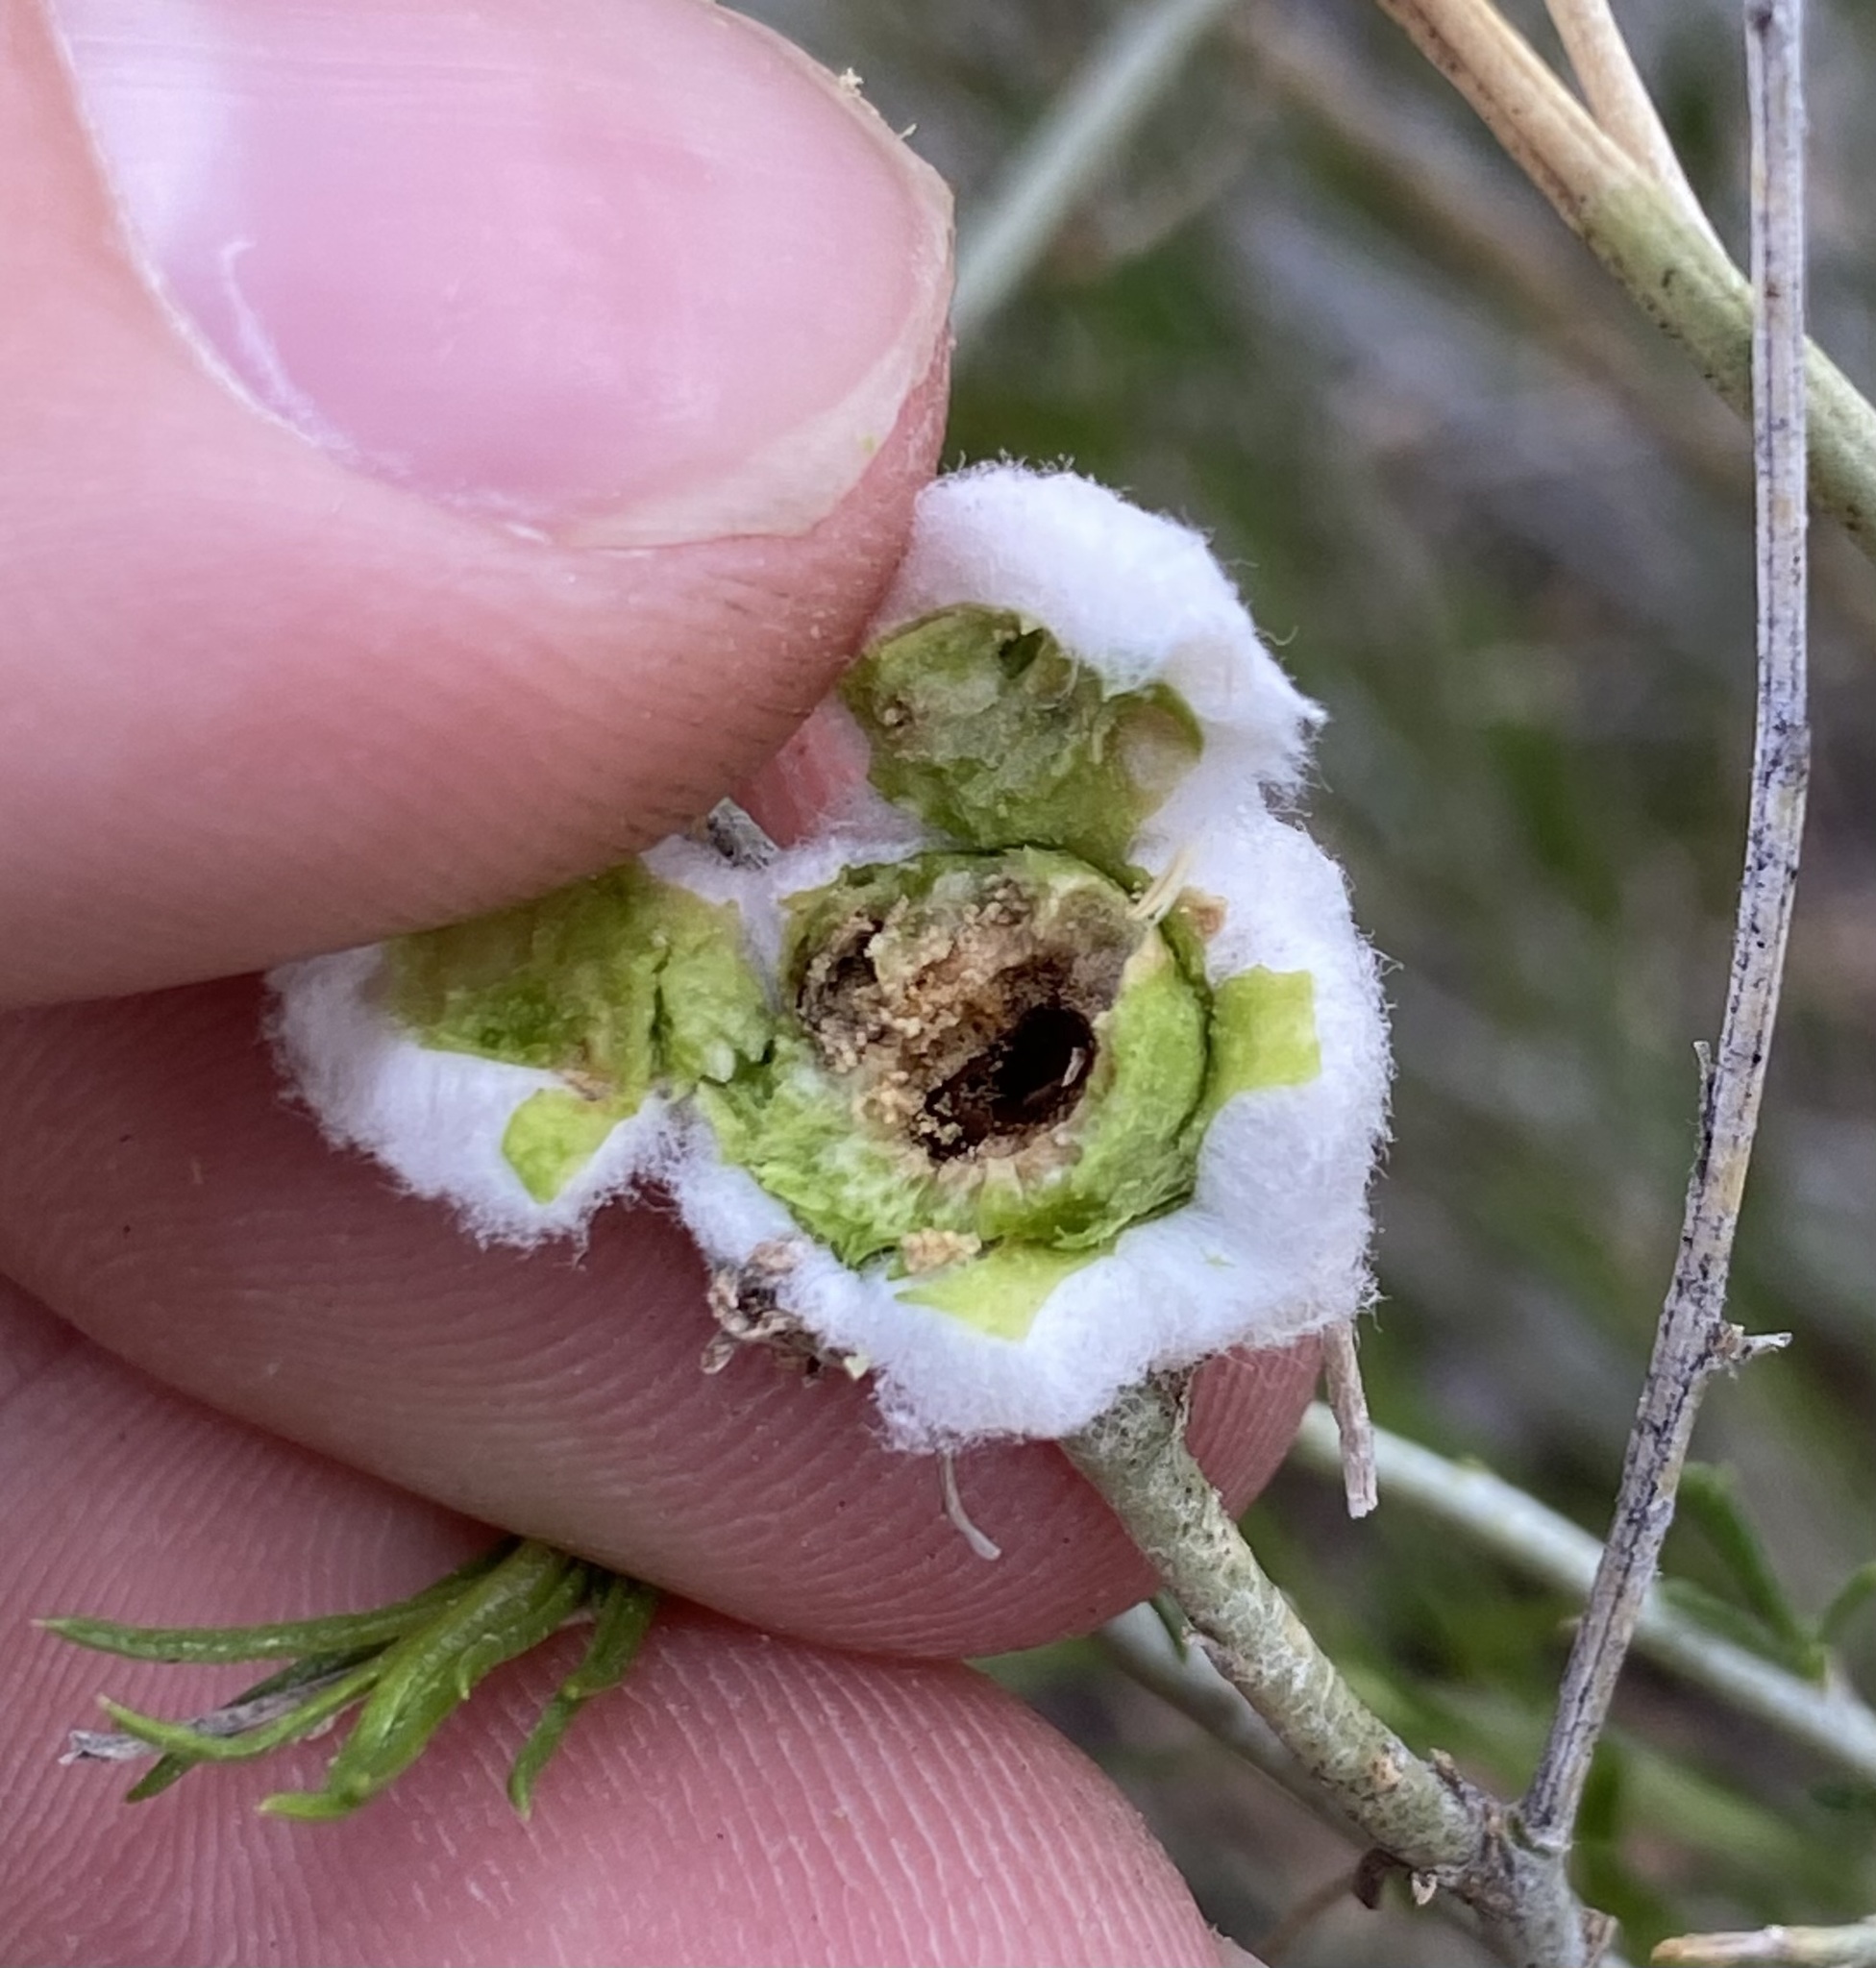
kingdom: Animalia
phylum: Arthropoda
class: Insecta
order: Diptera
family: Tephritidae
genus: Aciurina
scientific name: Aciurina bigeloviae
